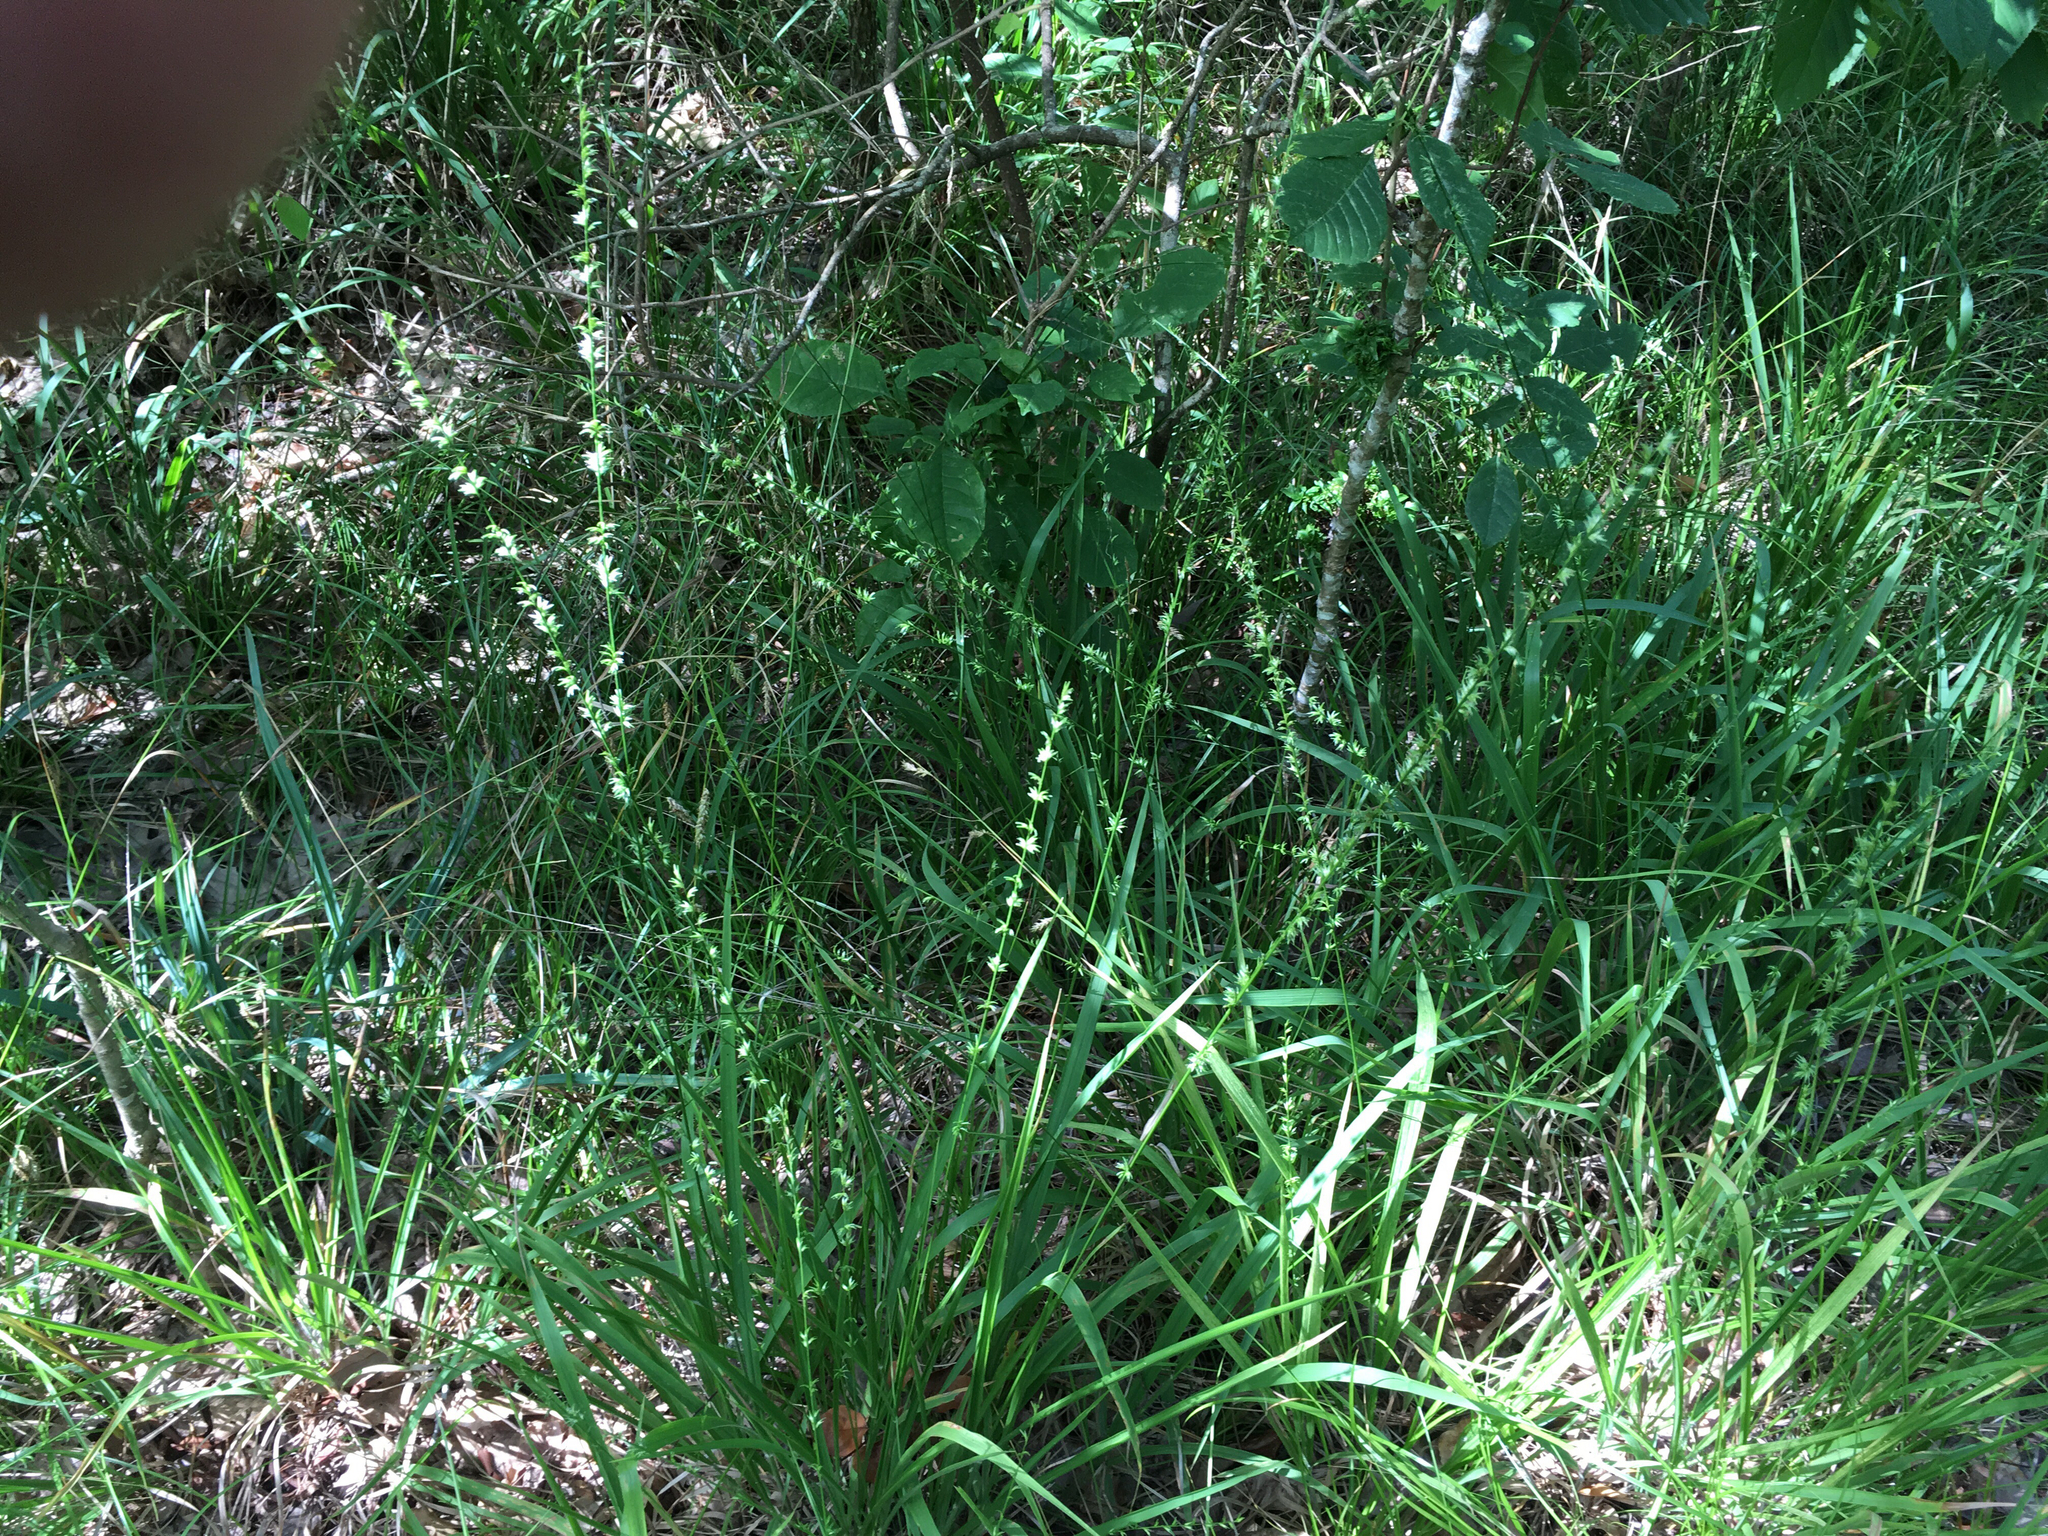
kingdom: Plantae
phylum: Tracheophyta
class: Liliopsida
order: Poales
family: Poaceae
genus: Chasmanthium
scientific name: Chasmanthium laxum
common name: Slender chasmanthium
